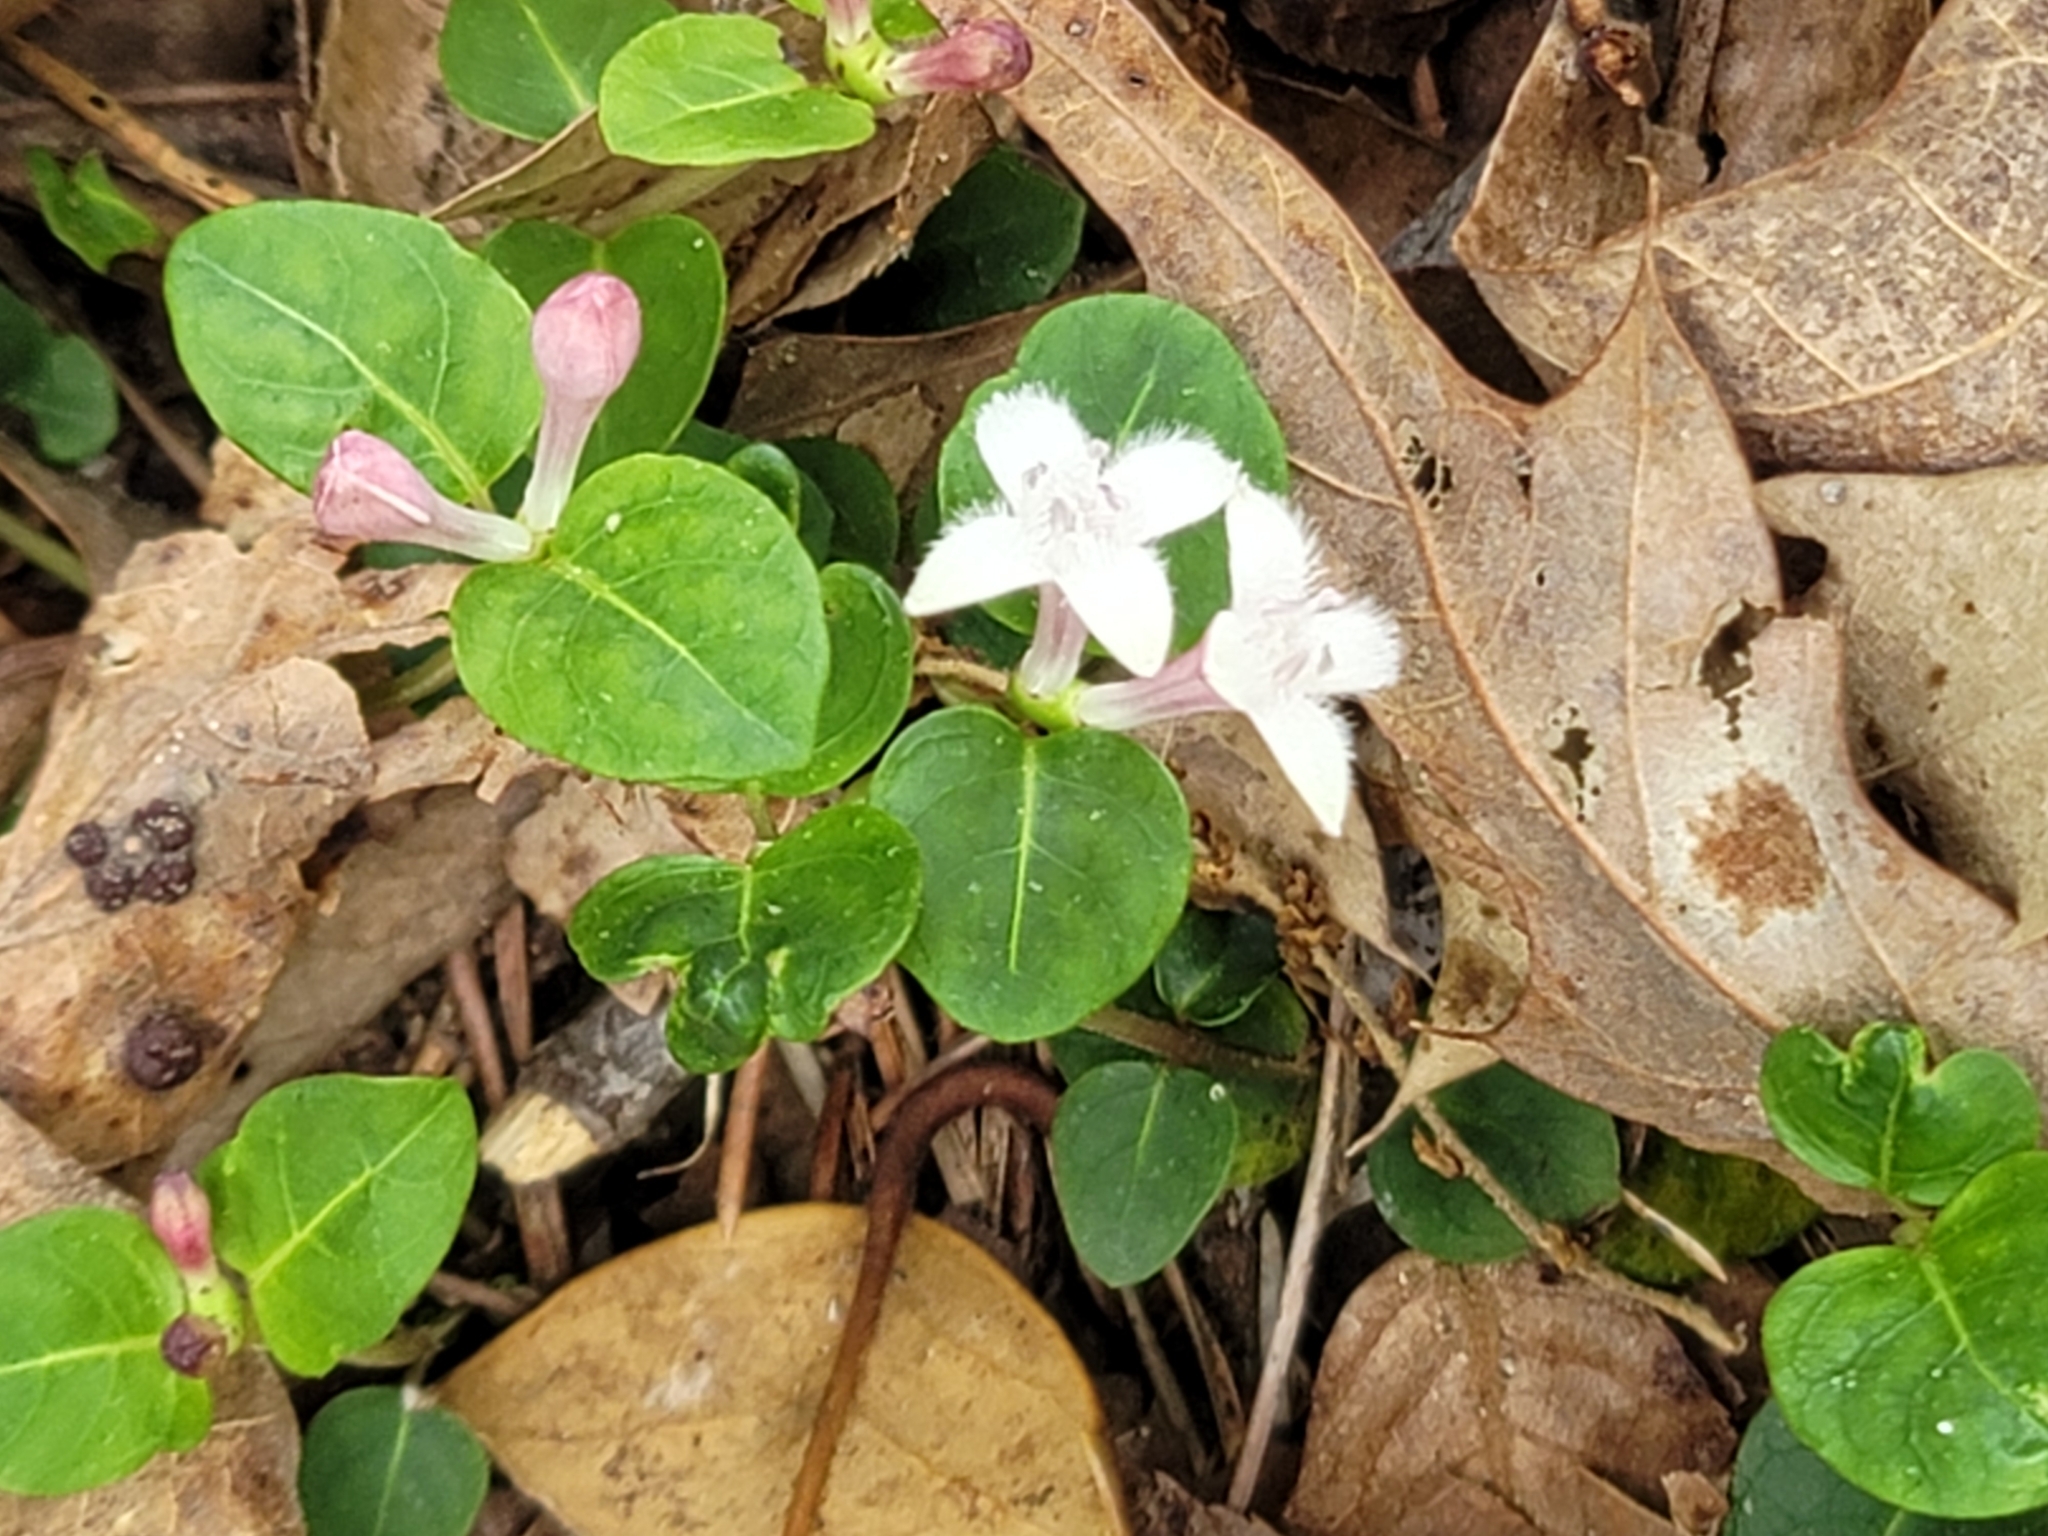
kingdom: Plantae
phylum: Tracheophyta
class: Magnoliopsida
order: Gentianales
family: Rubiaceae
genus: Mitchella
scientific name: Mitchella repens
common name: Partridge-berry
